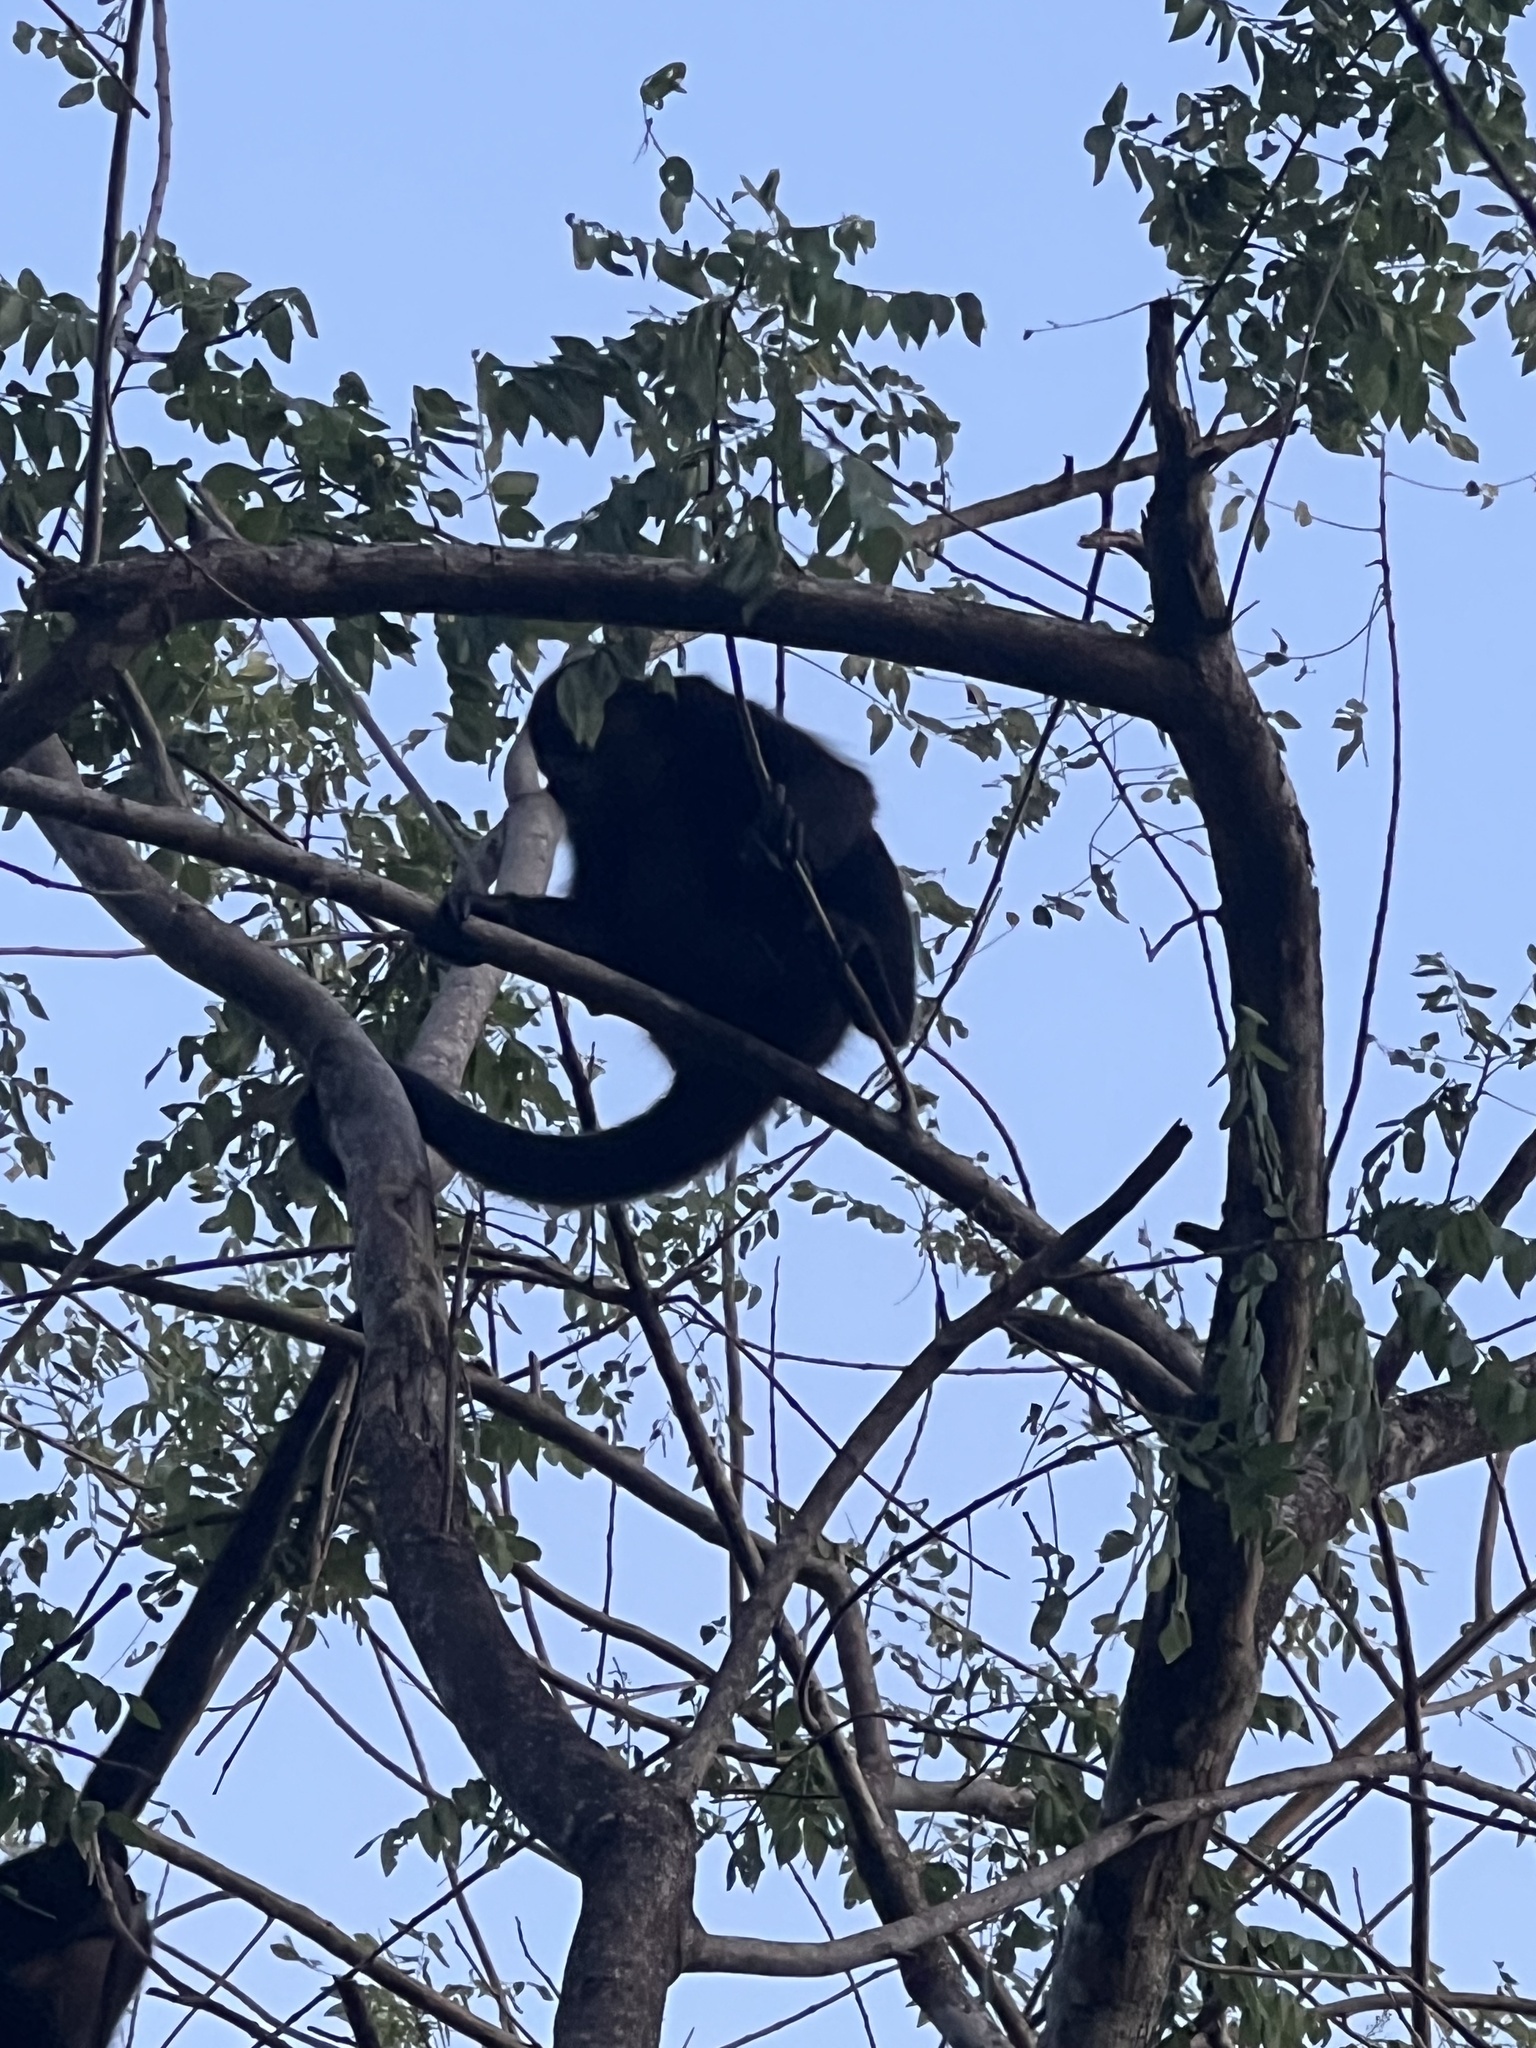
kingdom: Animalia
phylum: Chordata
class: Mammalia
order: Primates
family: Atelidae
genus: Alouatta
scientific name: Alouatta palliata
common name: Mantled howler
